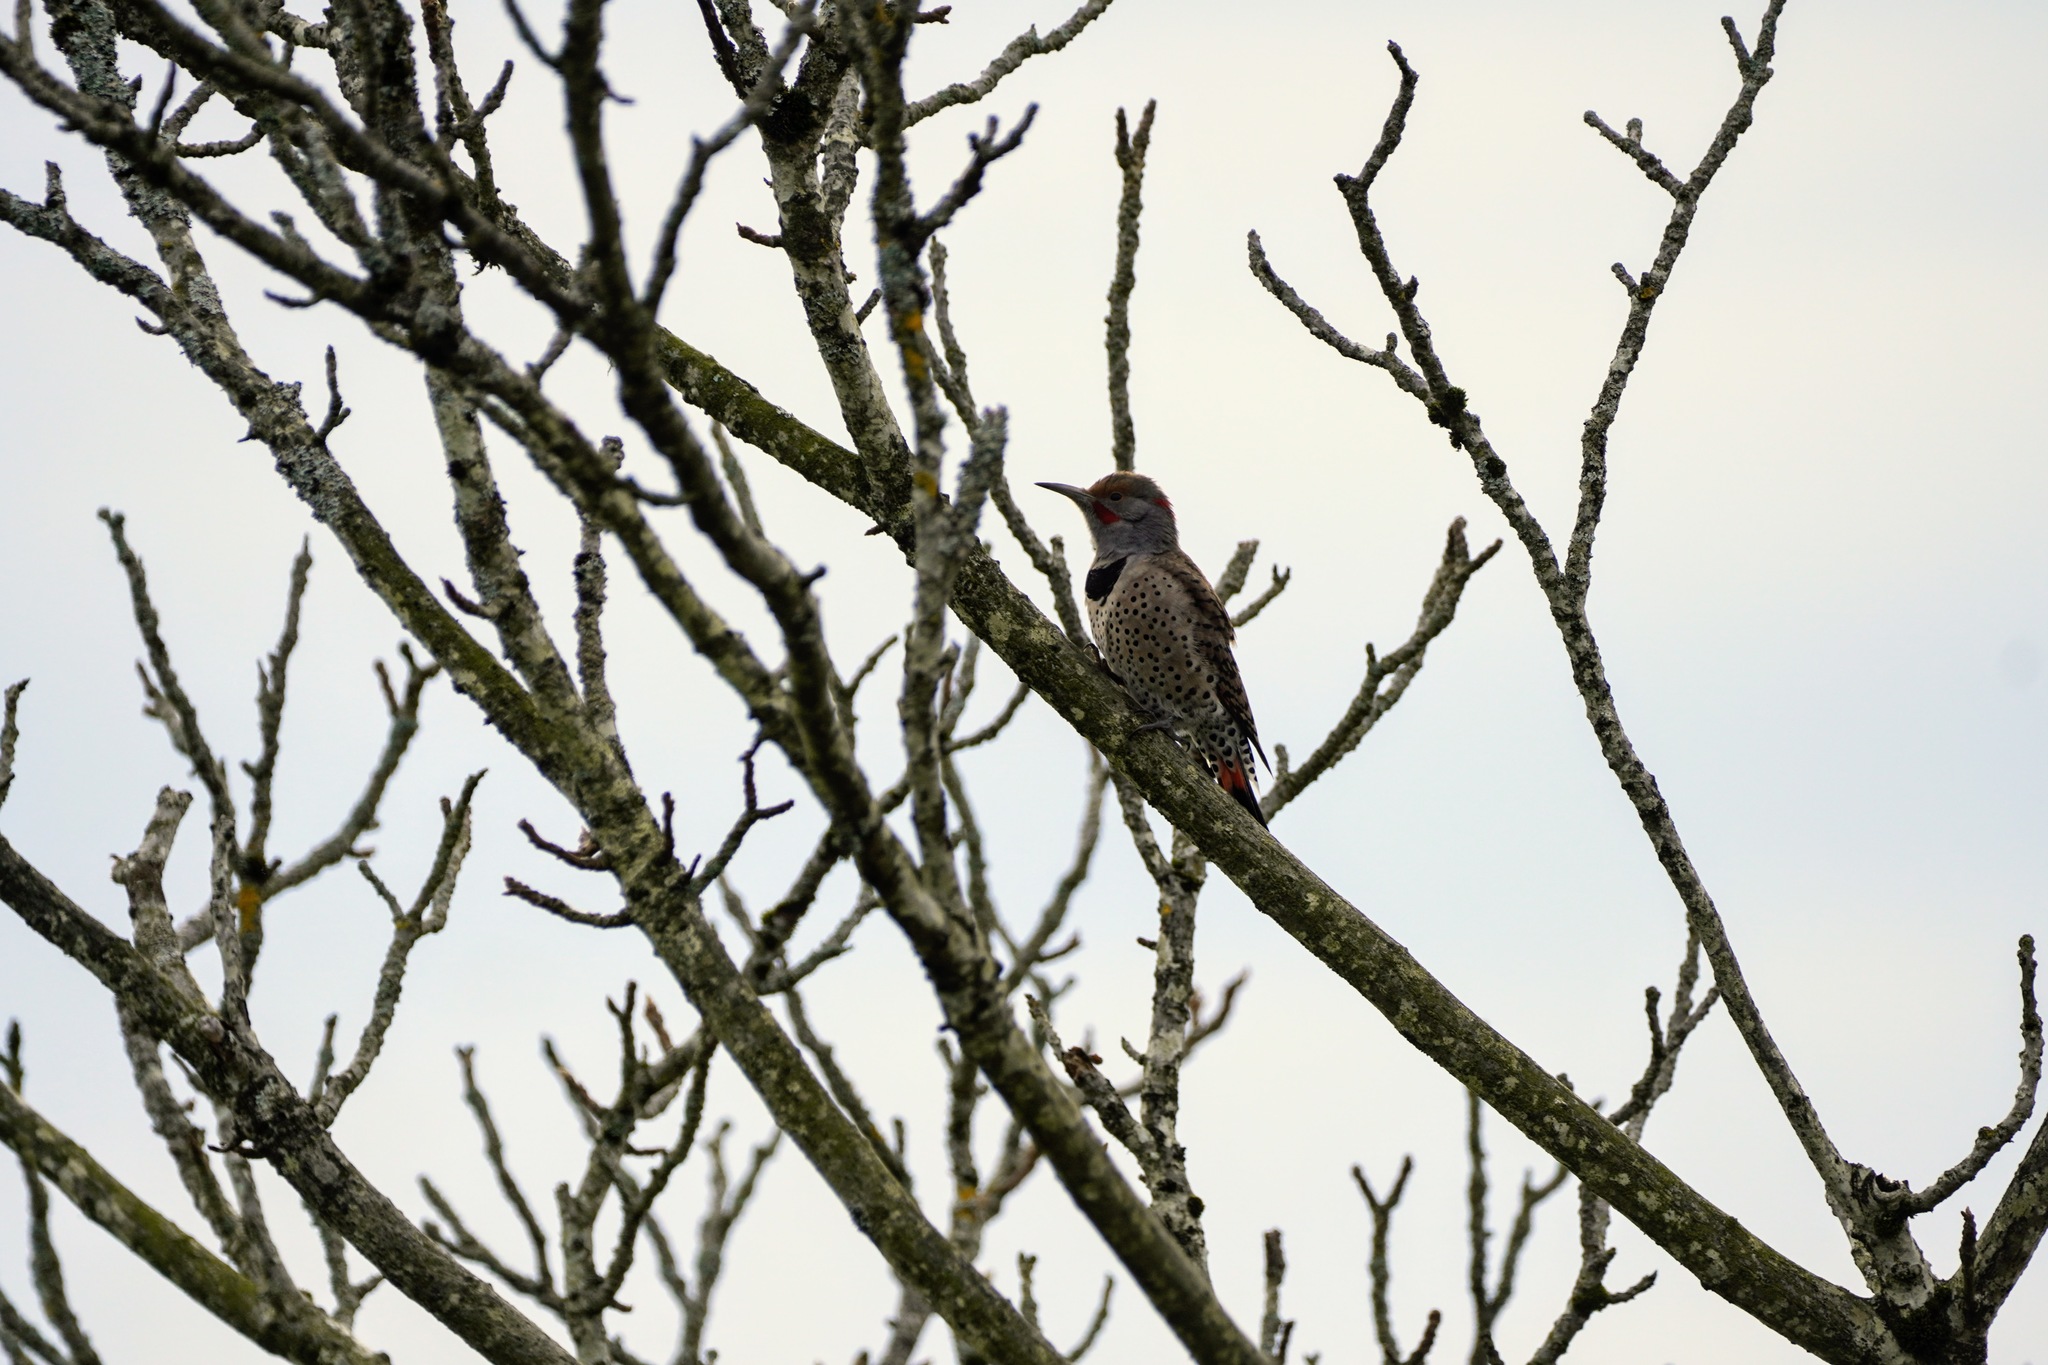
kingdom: Animalia
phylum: Chordata
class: Aves
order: Piciformes
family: Picidae
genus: Colaptes
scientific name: Colaptes auratus
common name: Northern flicker
